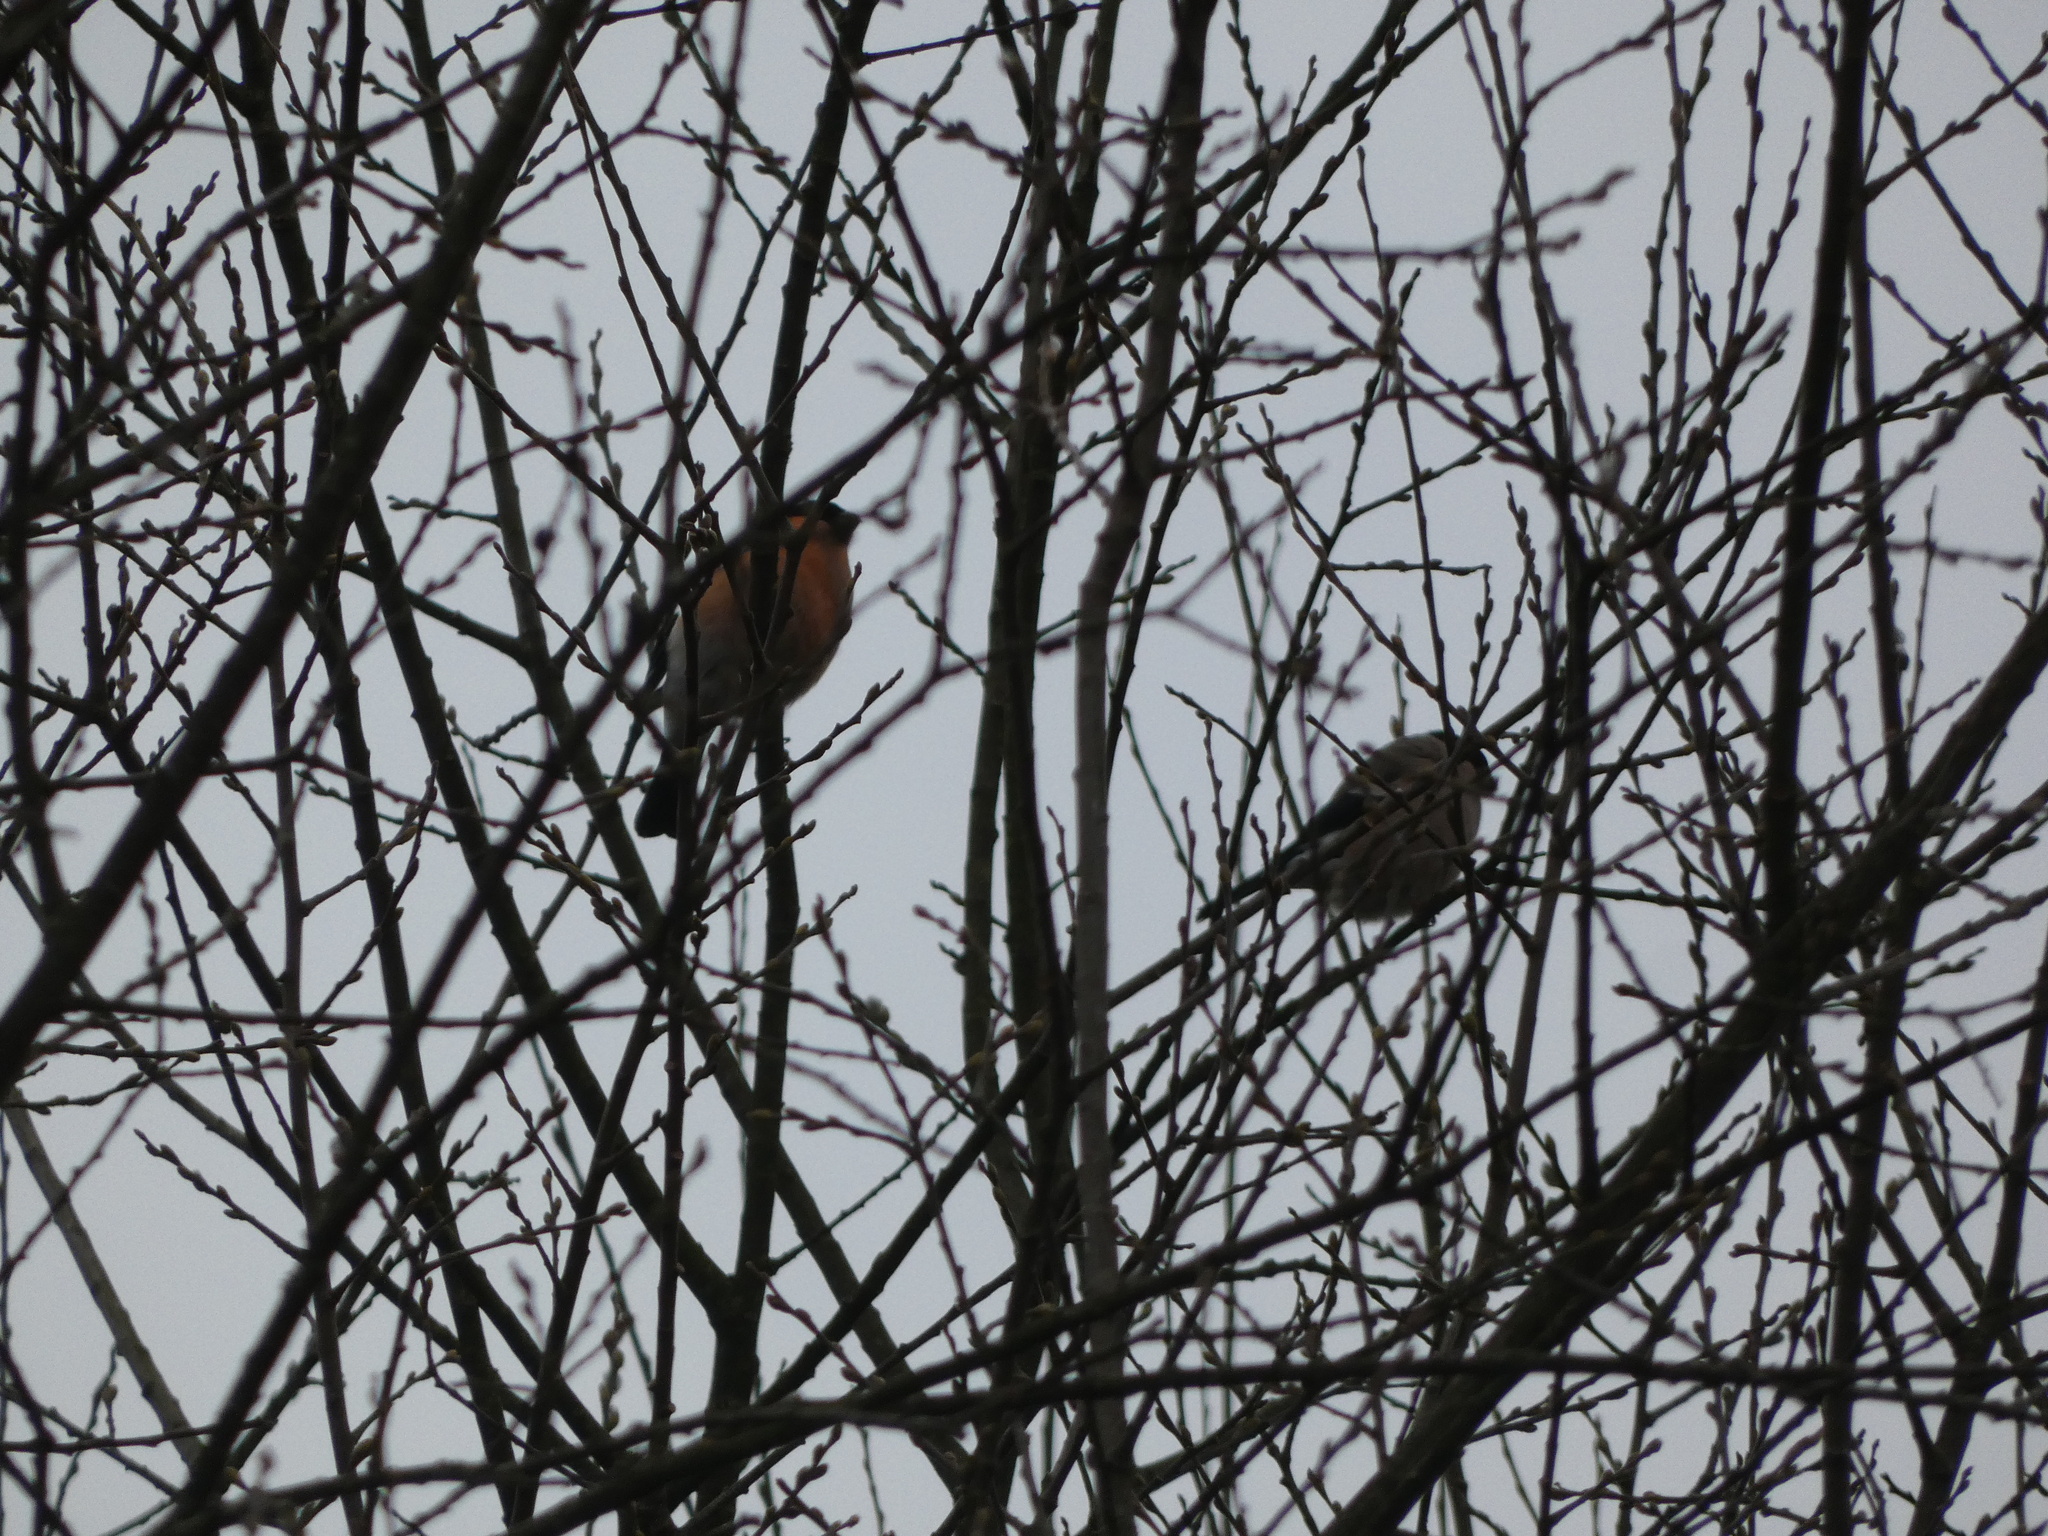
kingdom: Animalia
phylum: Chordata
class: Aves
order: Passeriformes
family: Fringillidae
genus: Pyrrhula
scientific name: Pyrrhula pyrrhula
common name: Eurasian bullfinch
